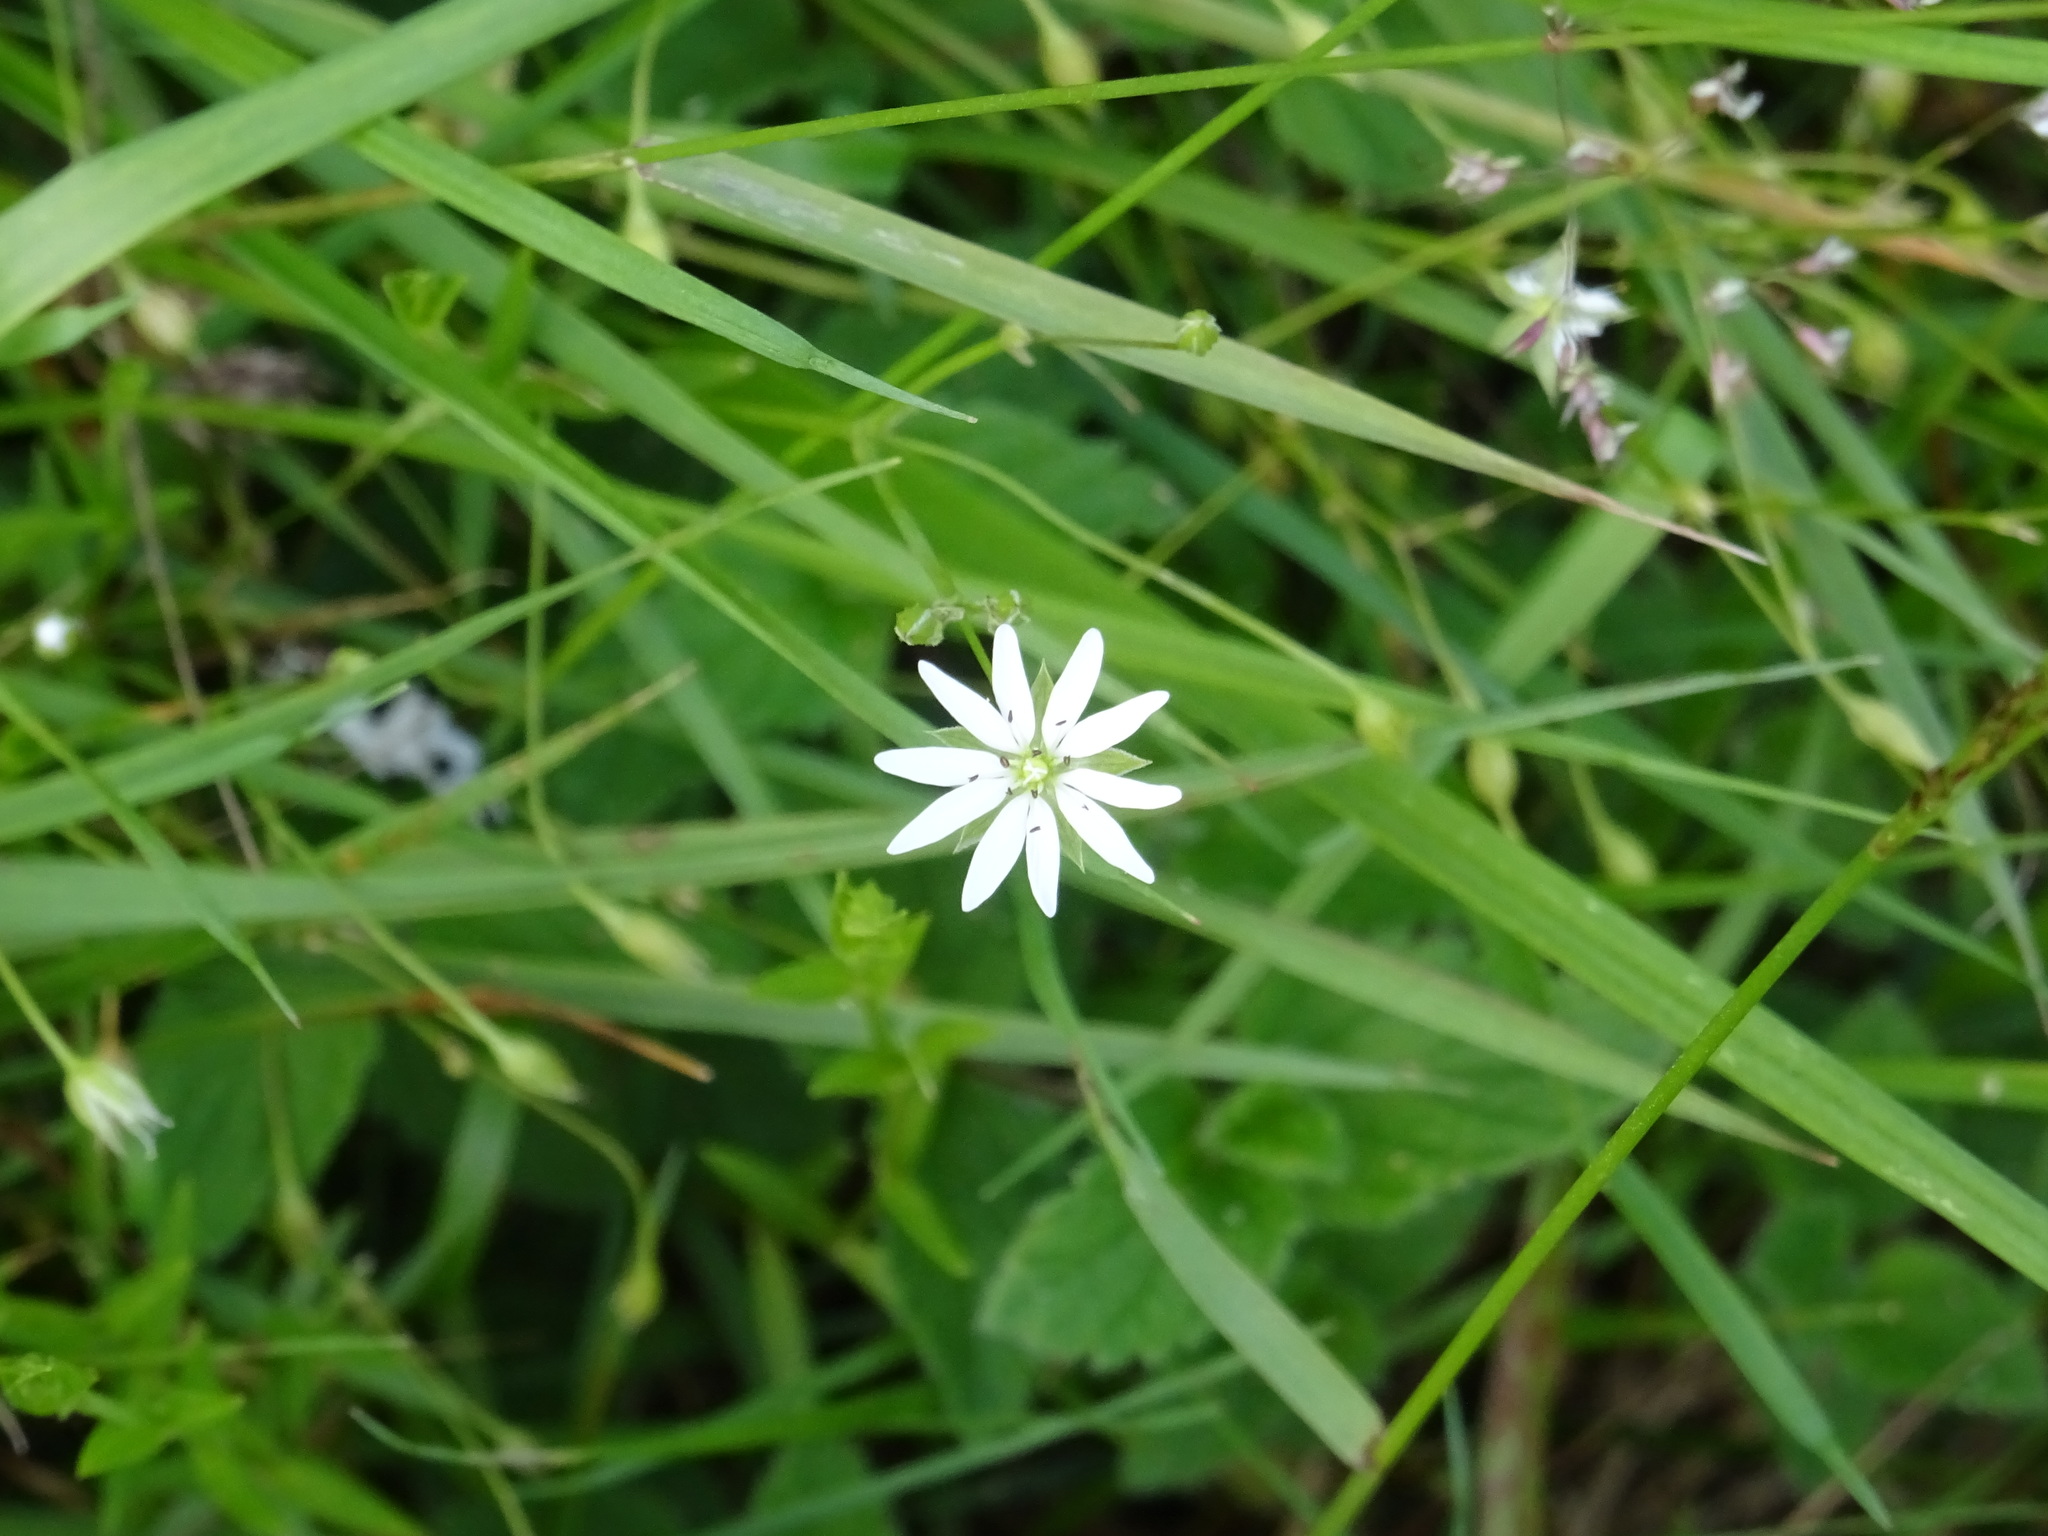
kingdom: Plantae
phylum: Tracheophyta
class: Magnoliopsida
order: Caryophyllales
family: Caryophyllaceae
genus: Stellaria
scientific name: Stellaria graminea
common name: Grass-like starwort
